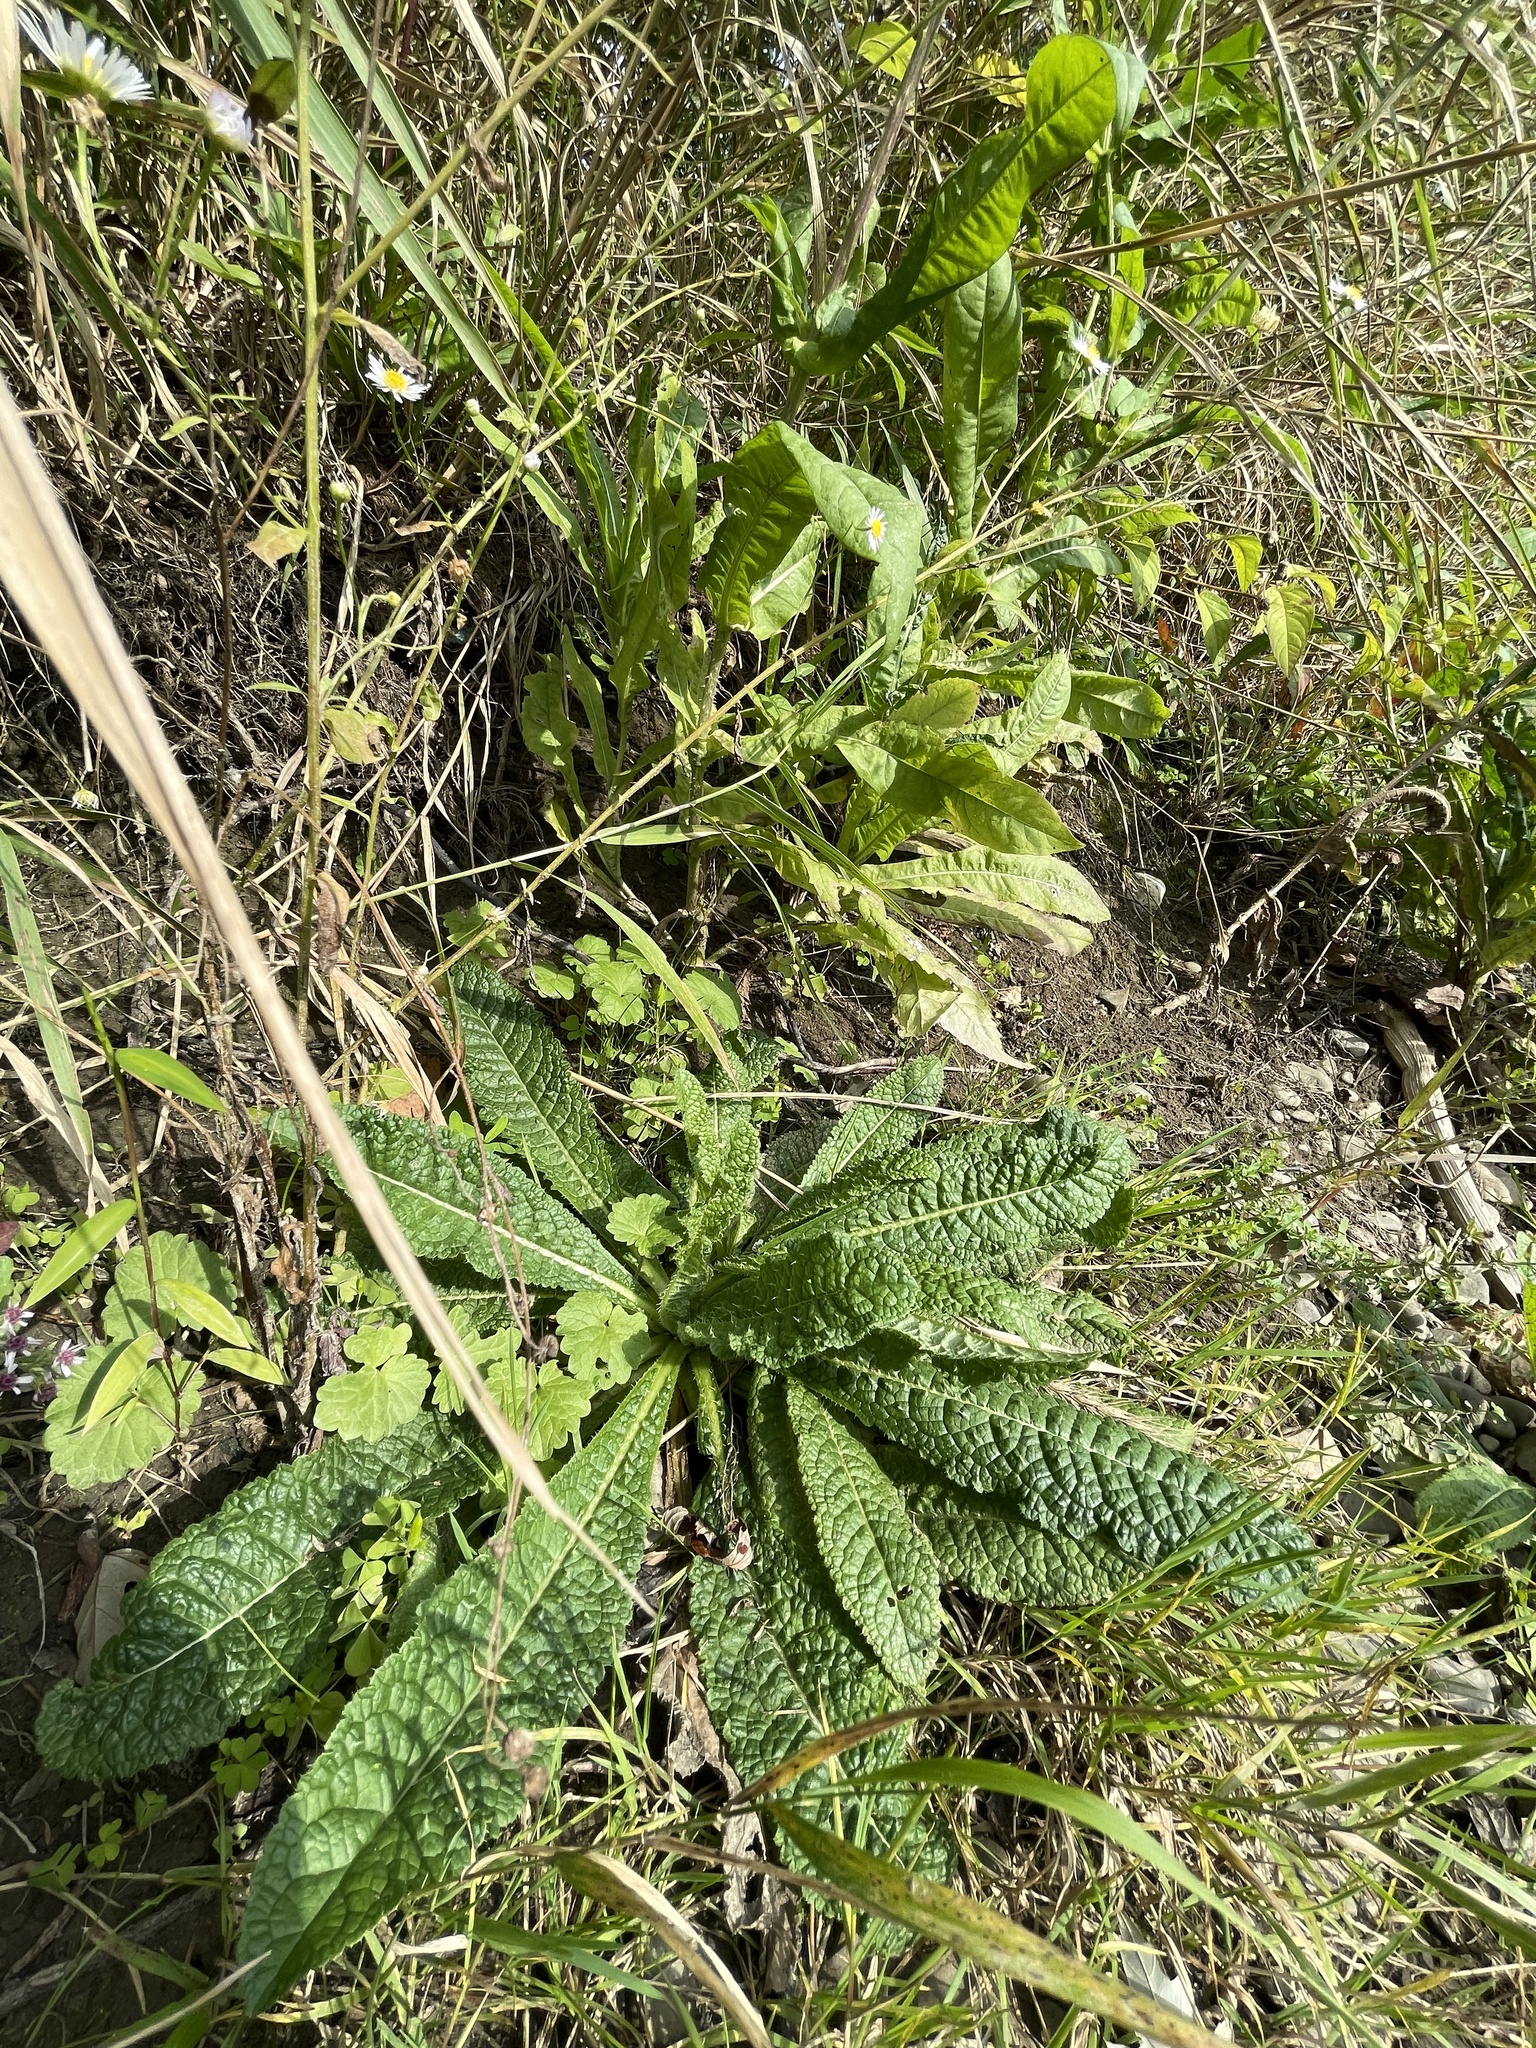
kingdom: Plantae
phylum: Tracheophyta
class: Magnoliopsida
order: Dipsacales
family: Caprifoliaceae
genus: Dipsacus
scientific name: Dipsacus fullonum
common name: Teasel
